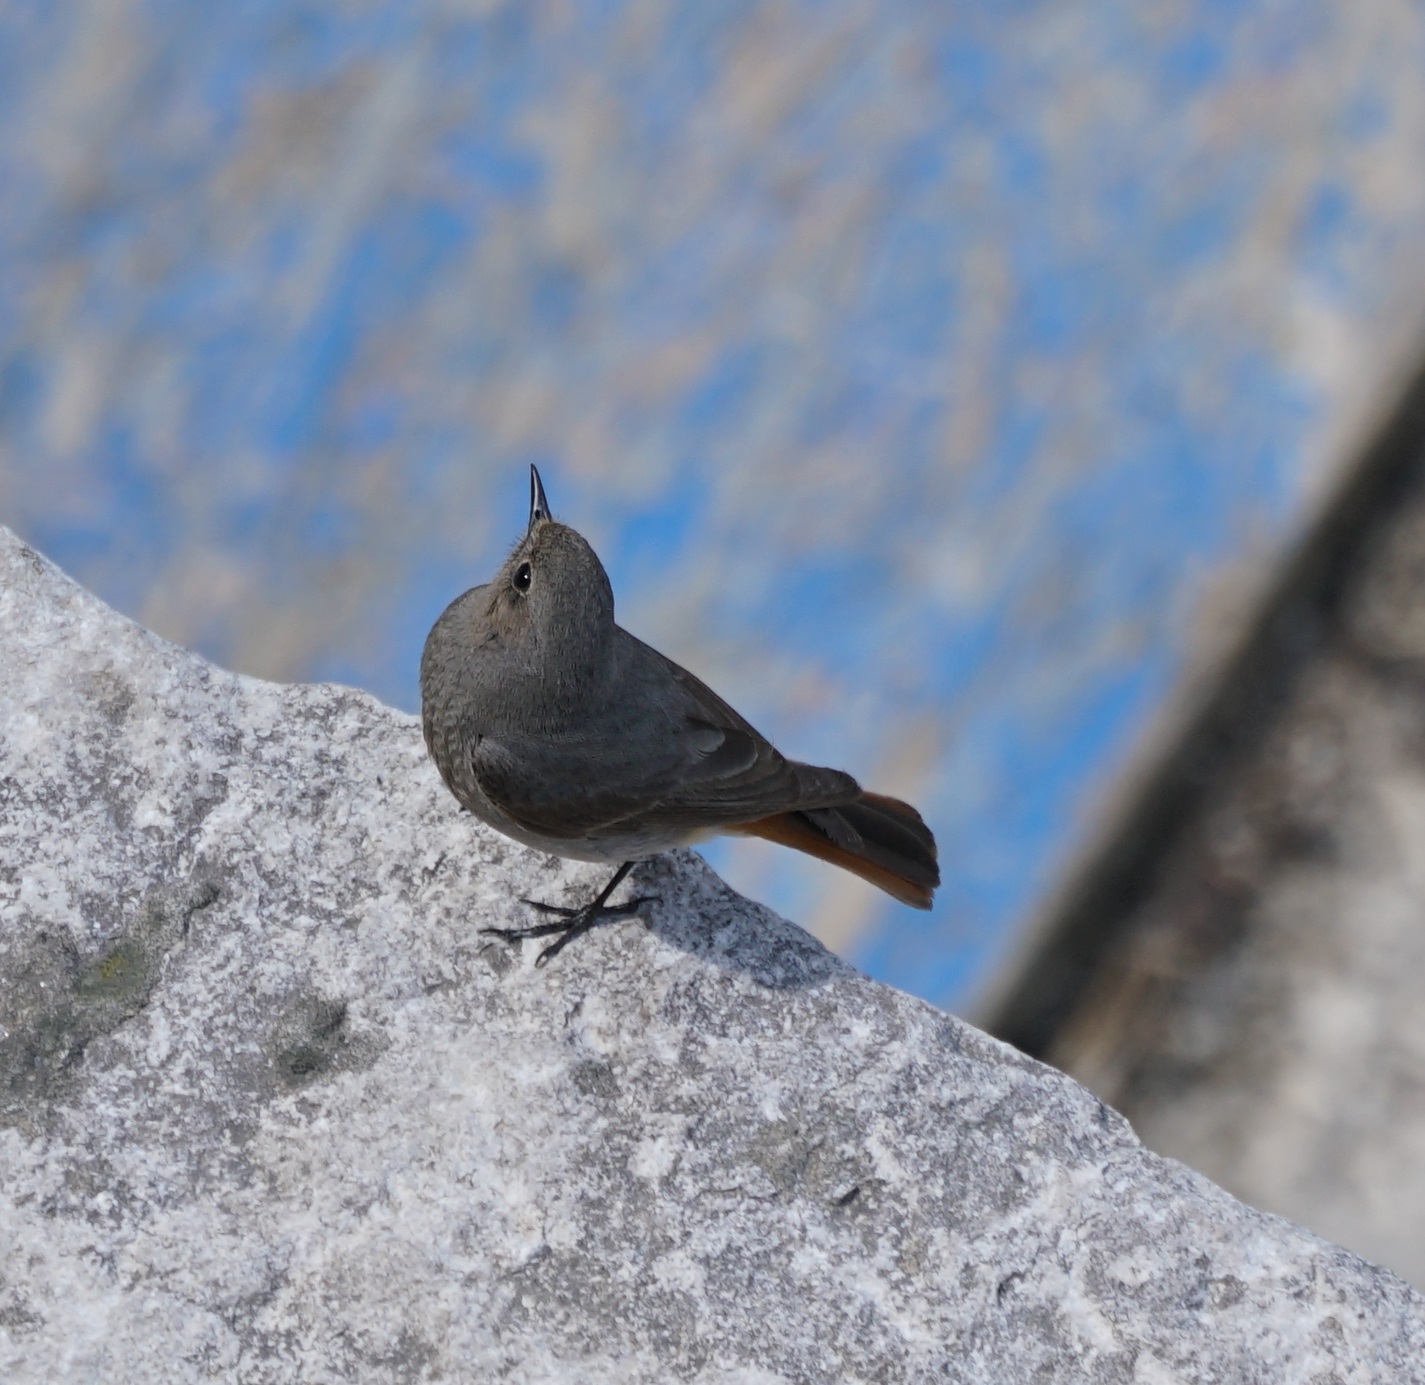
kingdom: Animalia
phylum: Chordata
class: Aves
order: Passeriformes
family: Muscicapidae
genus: Phoenicurus
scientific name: Phoenicurus ochruros
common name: Black redstart
